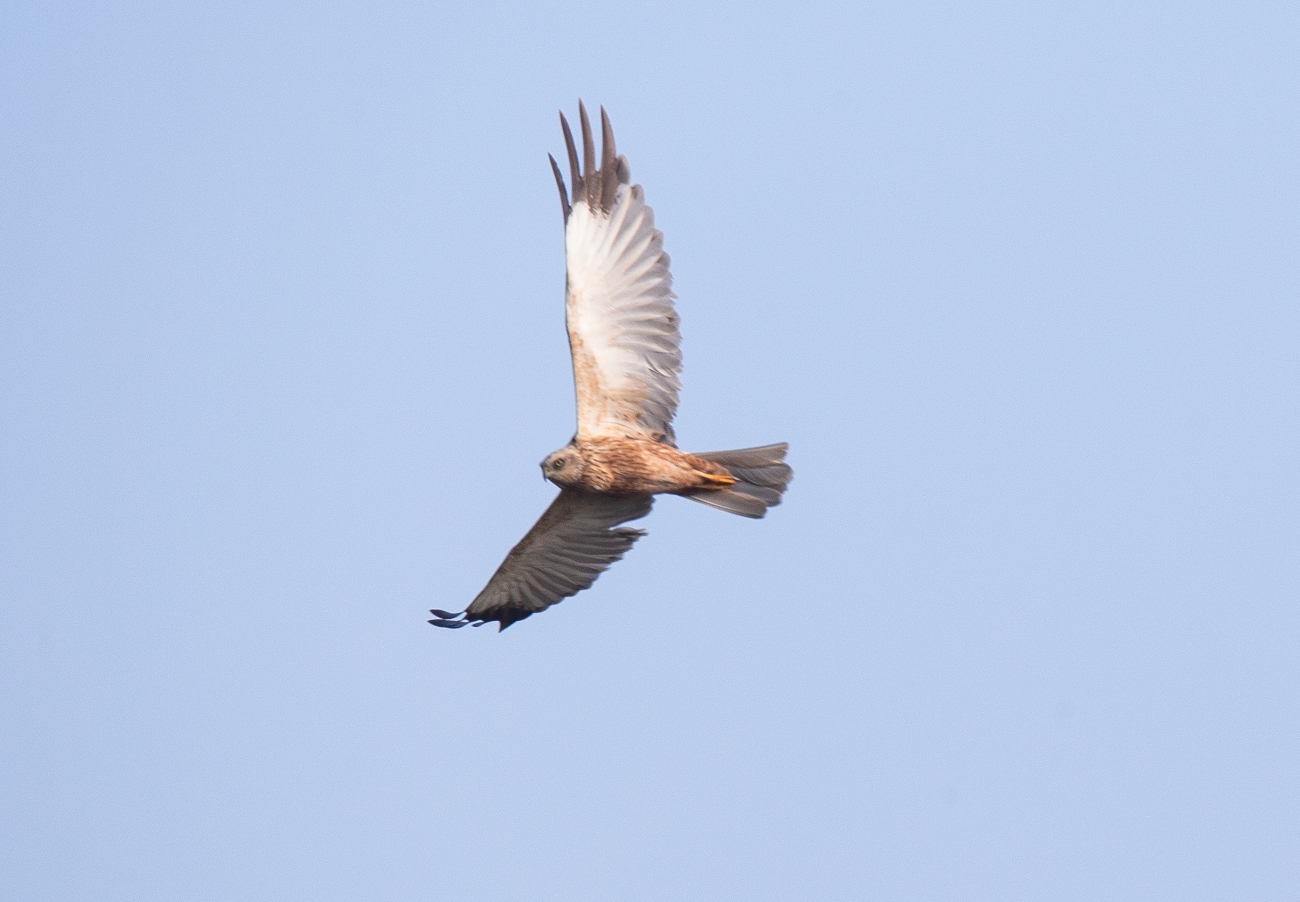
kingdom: Animalia
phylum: Chordata
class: Aves
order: Accipitriformes
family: Accipitridae
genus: Circus
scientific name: Circus aeruginosus
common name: Western marsh harrier
